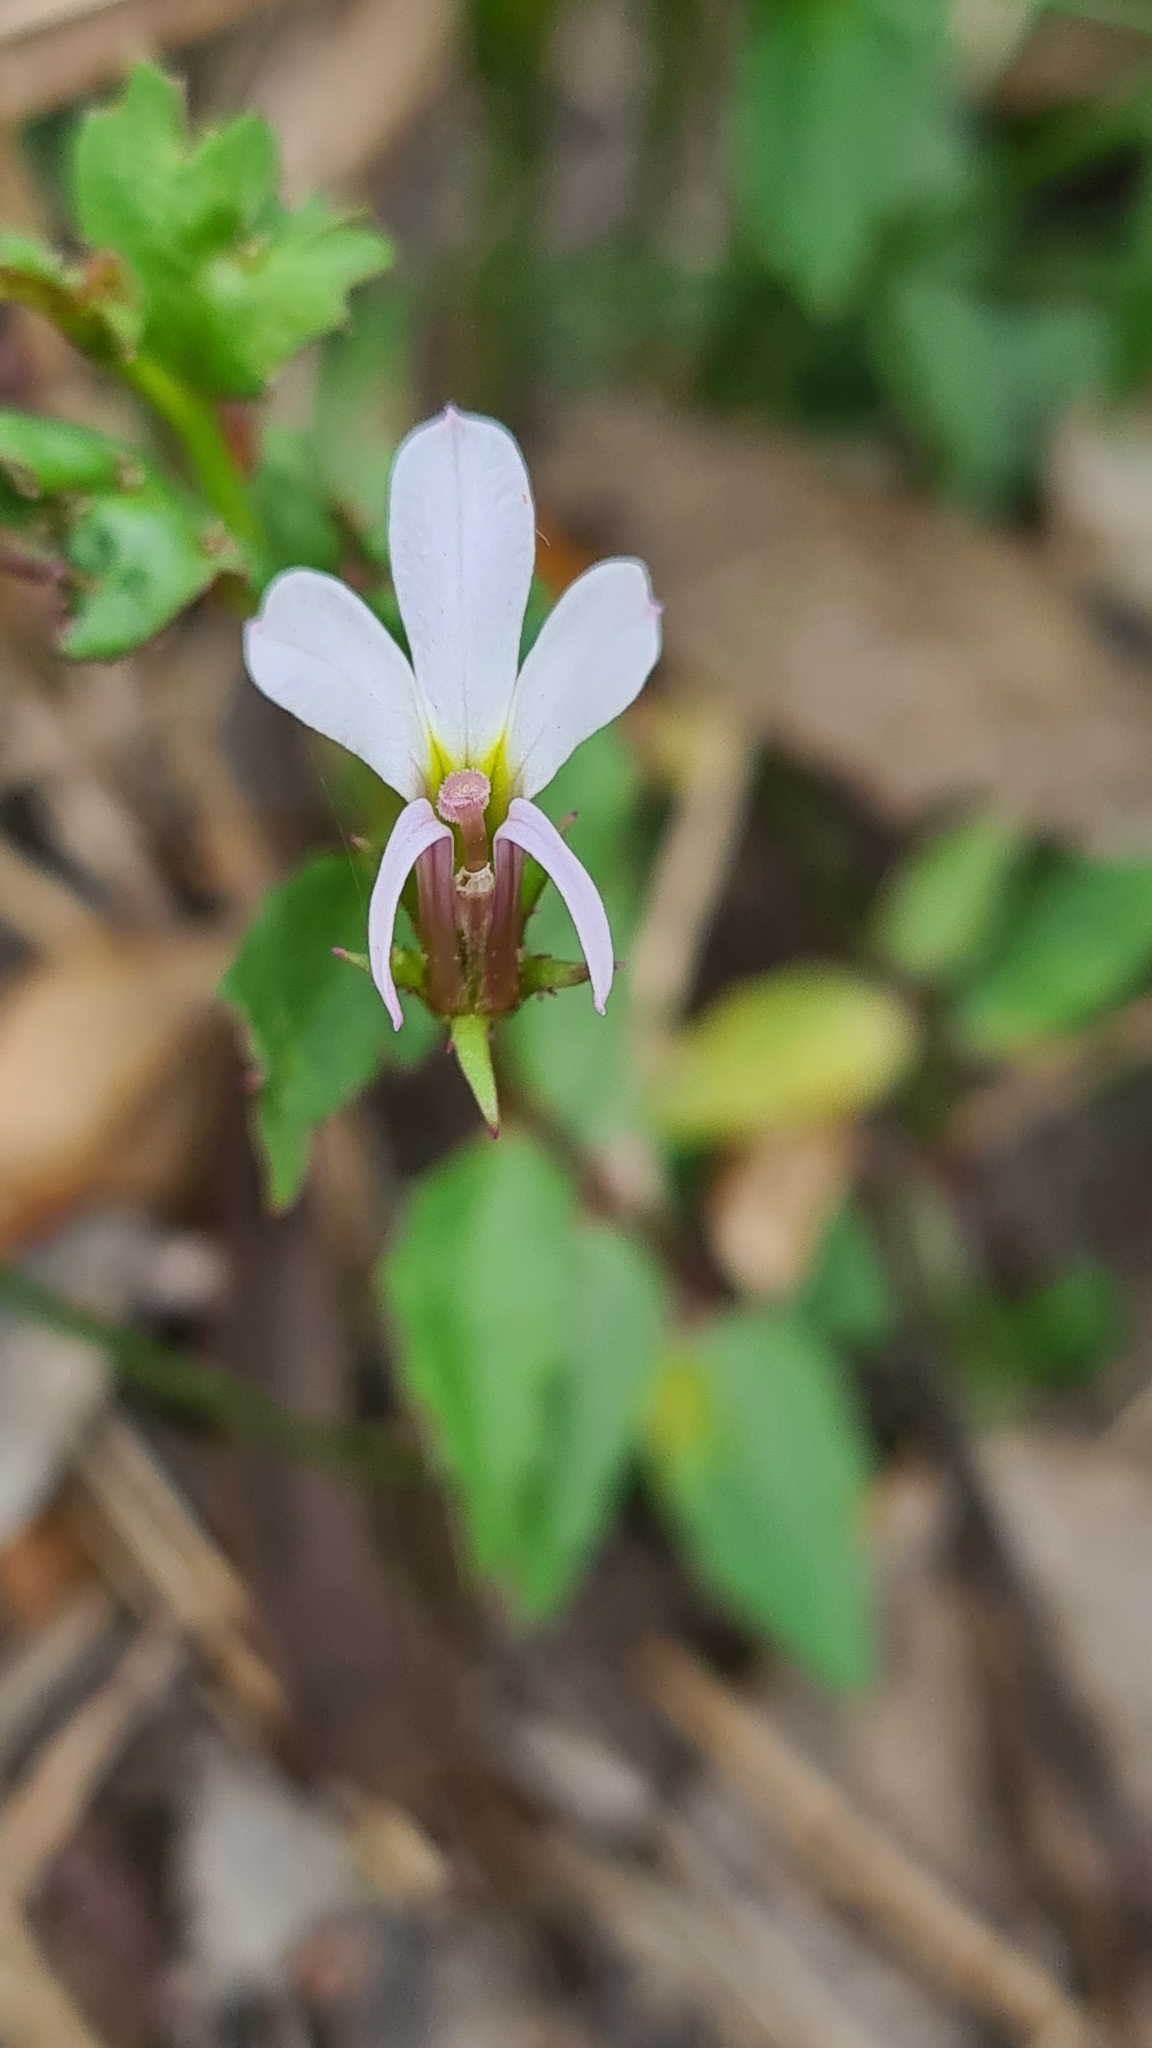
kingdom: Plantae
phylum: Tracheophyta
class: Magnoliopsida
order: Asterales
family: Campanulaceae
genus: Lobelia
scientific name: Lobelia purpurascens
